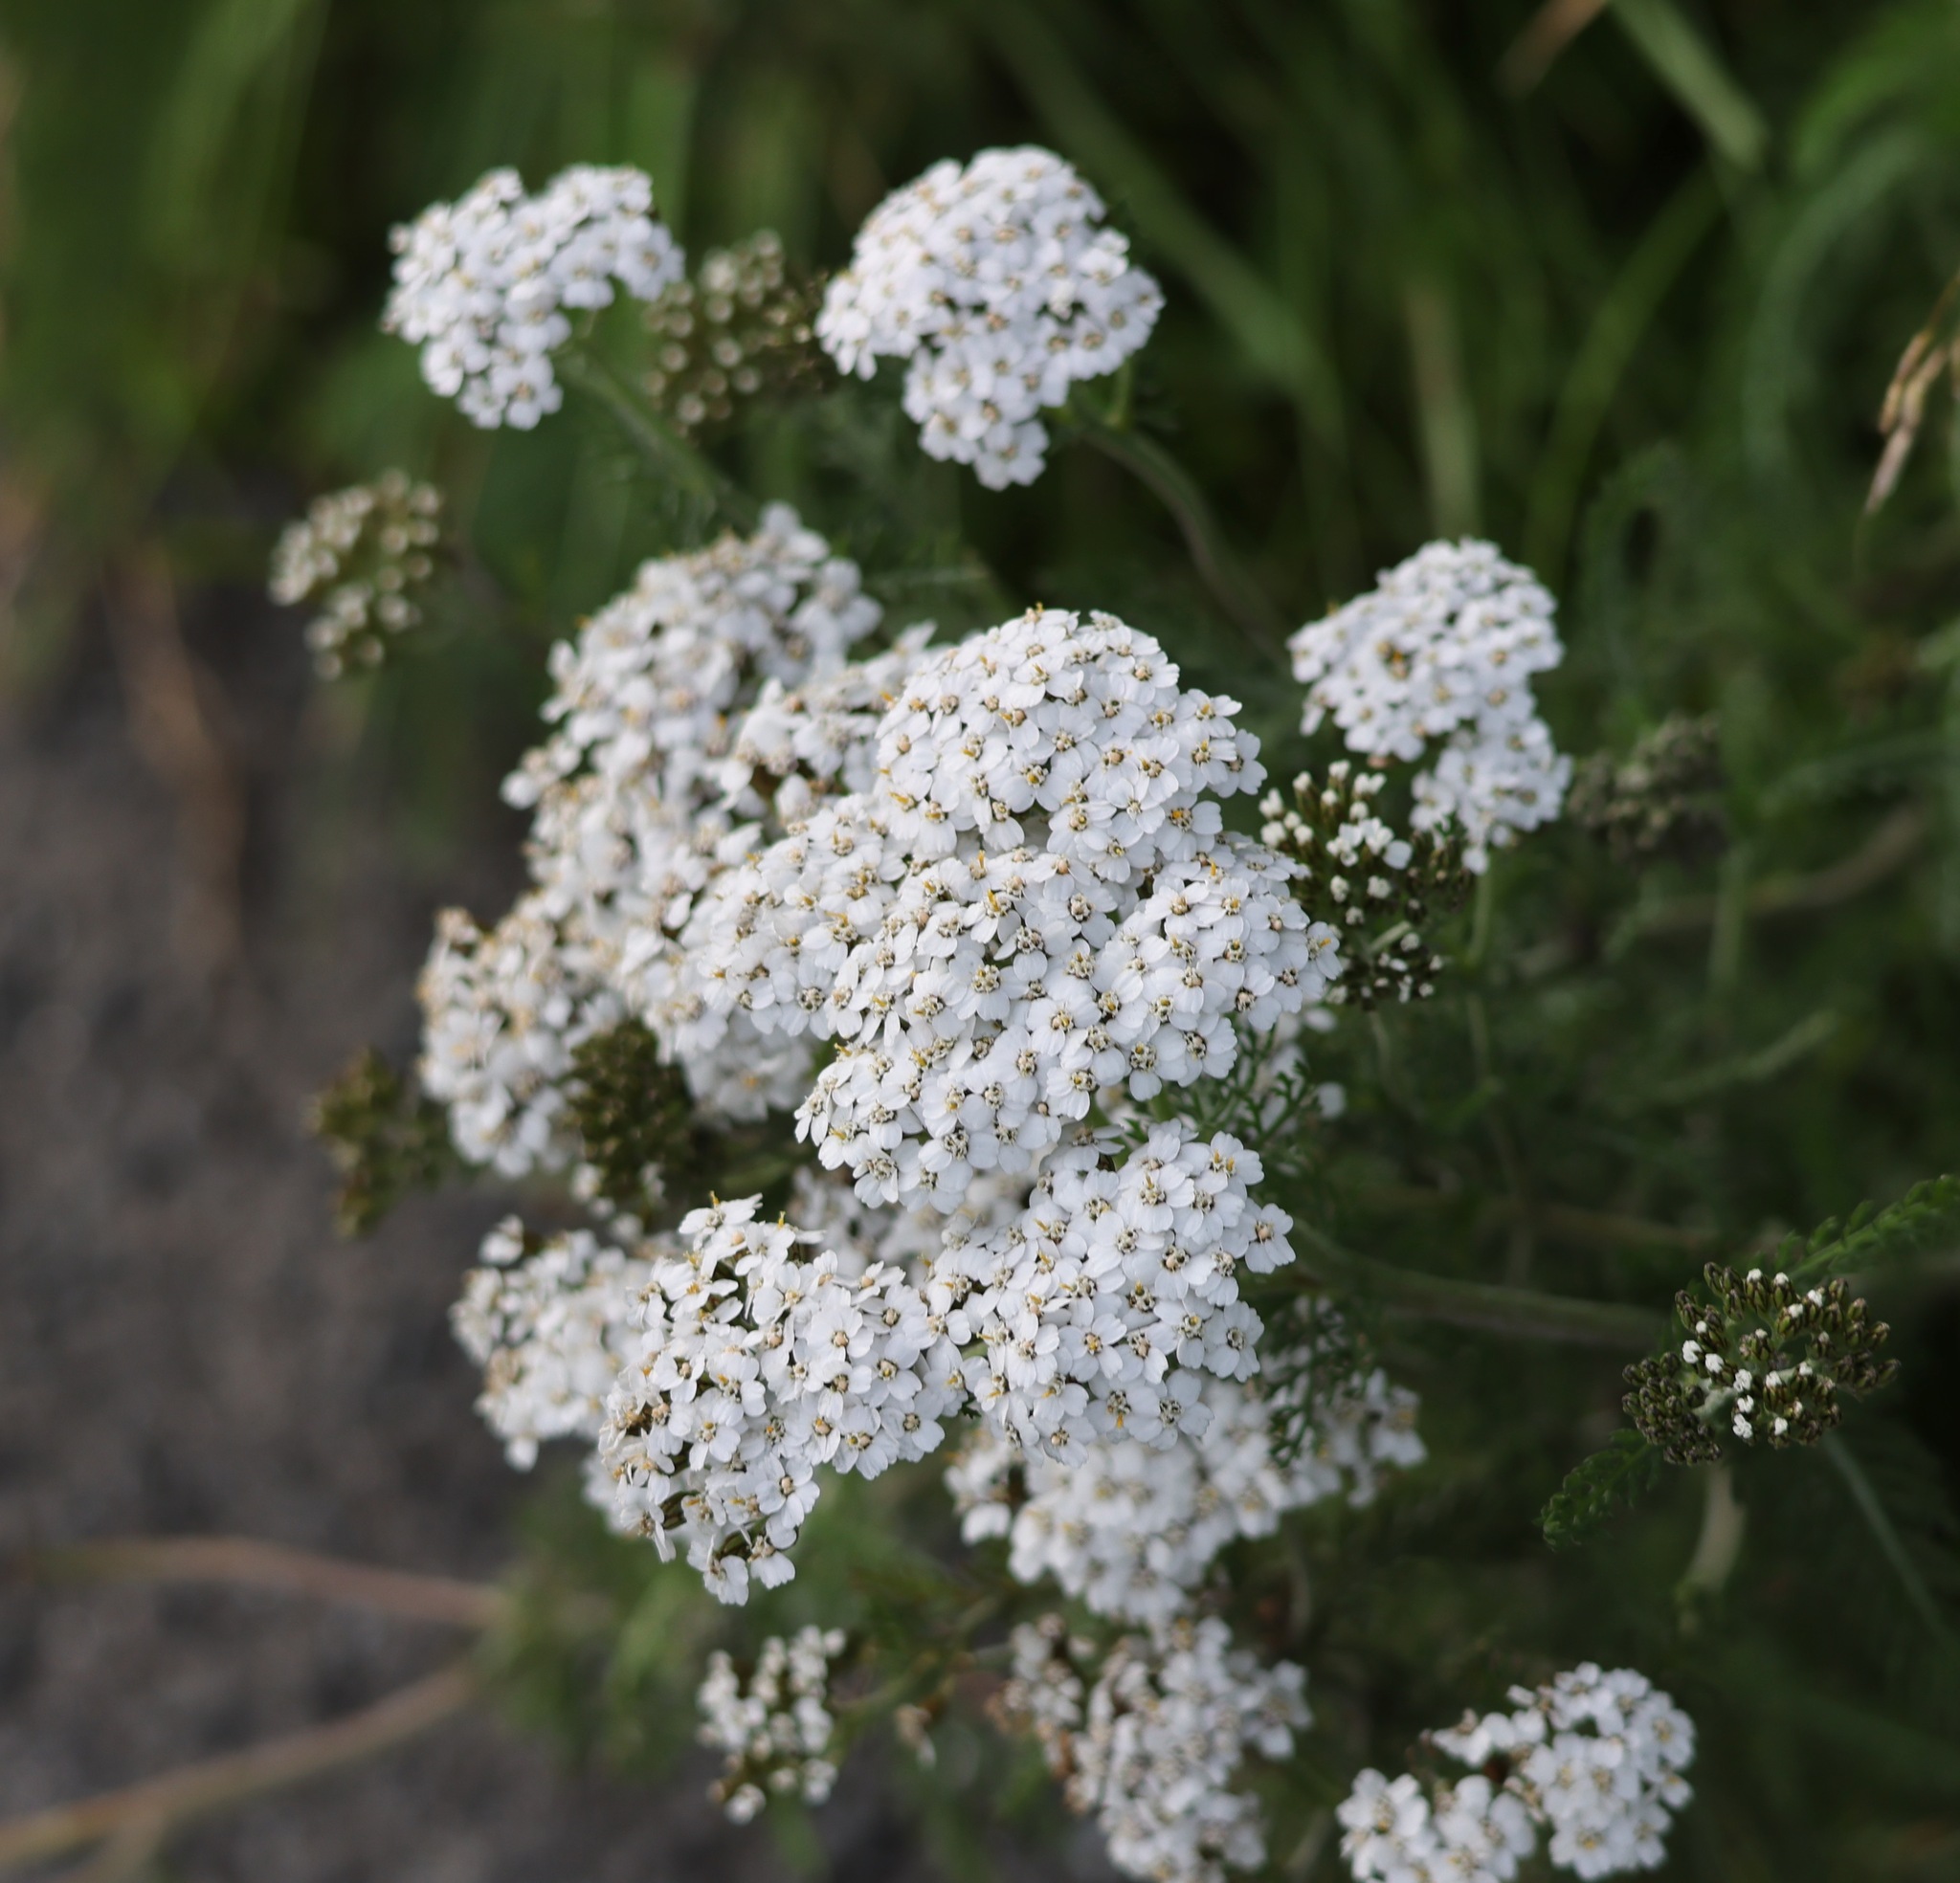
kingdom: Plantae
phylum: Tracheophyta
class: Magnoliopsida
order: Asterales
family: Asteraceae
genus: Achillea
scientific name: Achillea millefolium
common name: Yarrow
